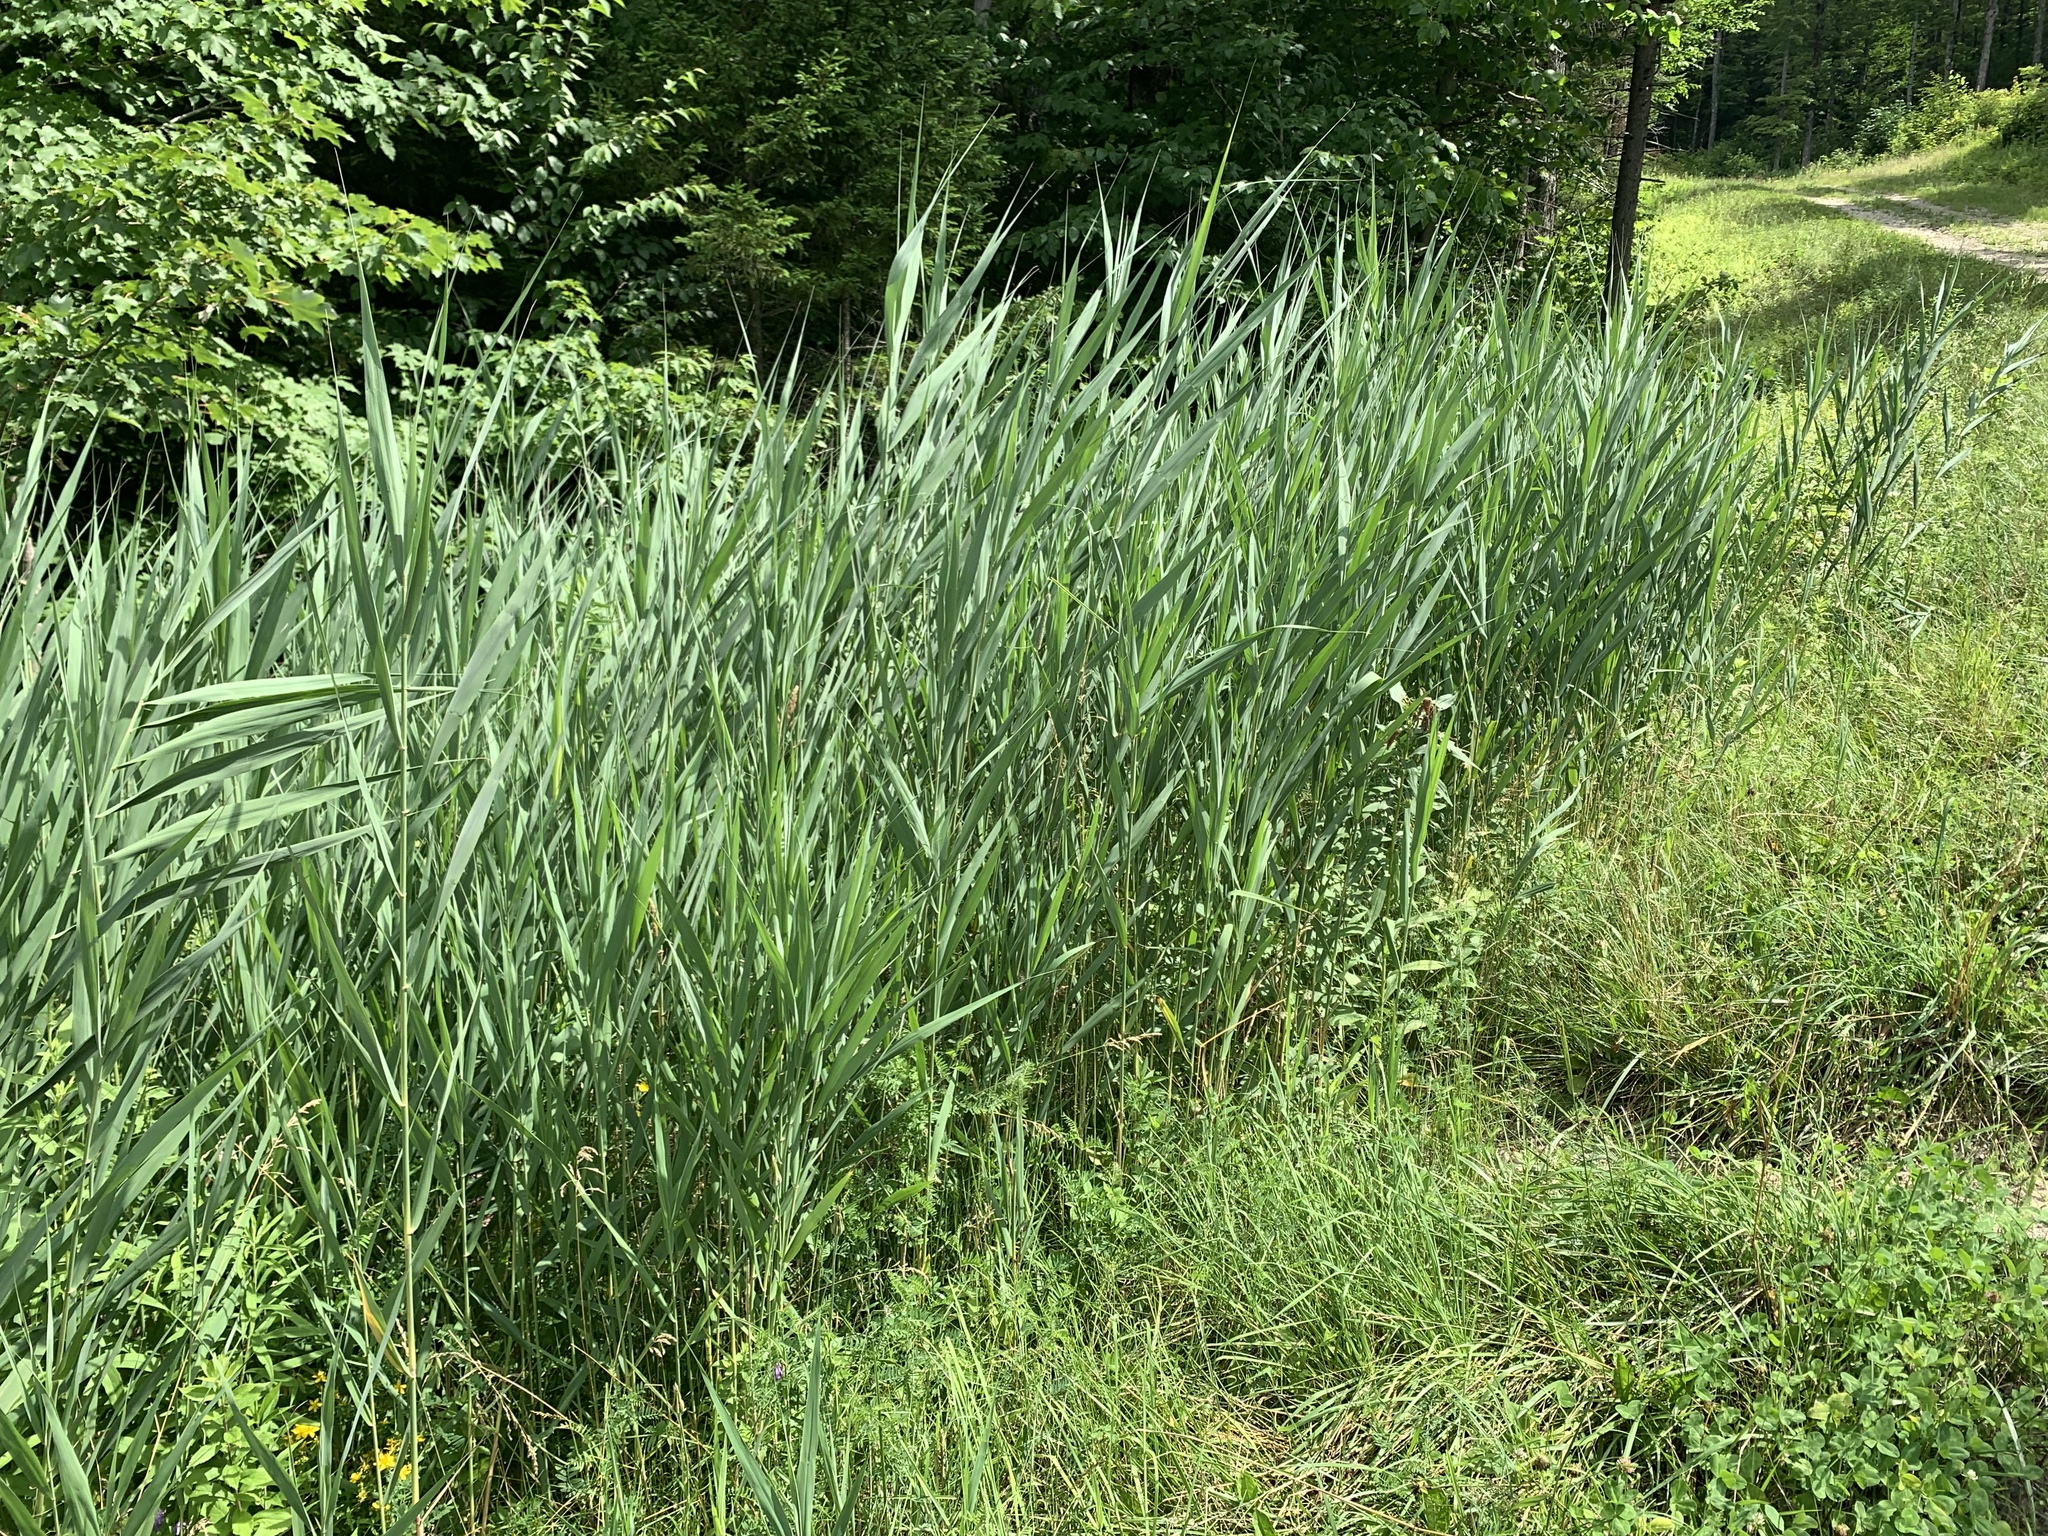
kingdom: Plantae
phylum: Tracheophyta
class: Liliopsida
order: Poales
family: Poaceae
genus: Phragmites
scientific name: Phragmites australis
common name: Common reed
